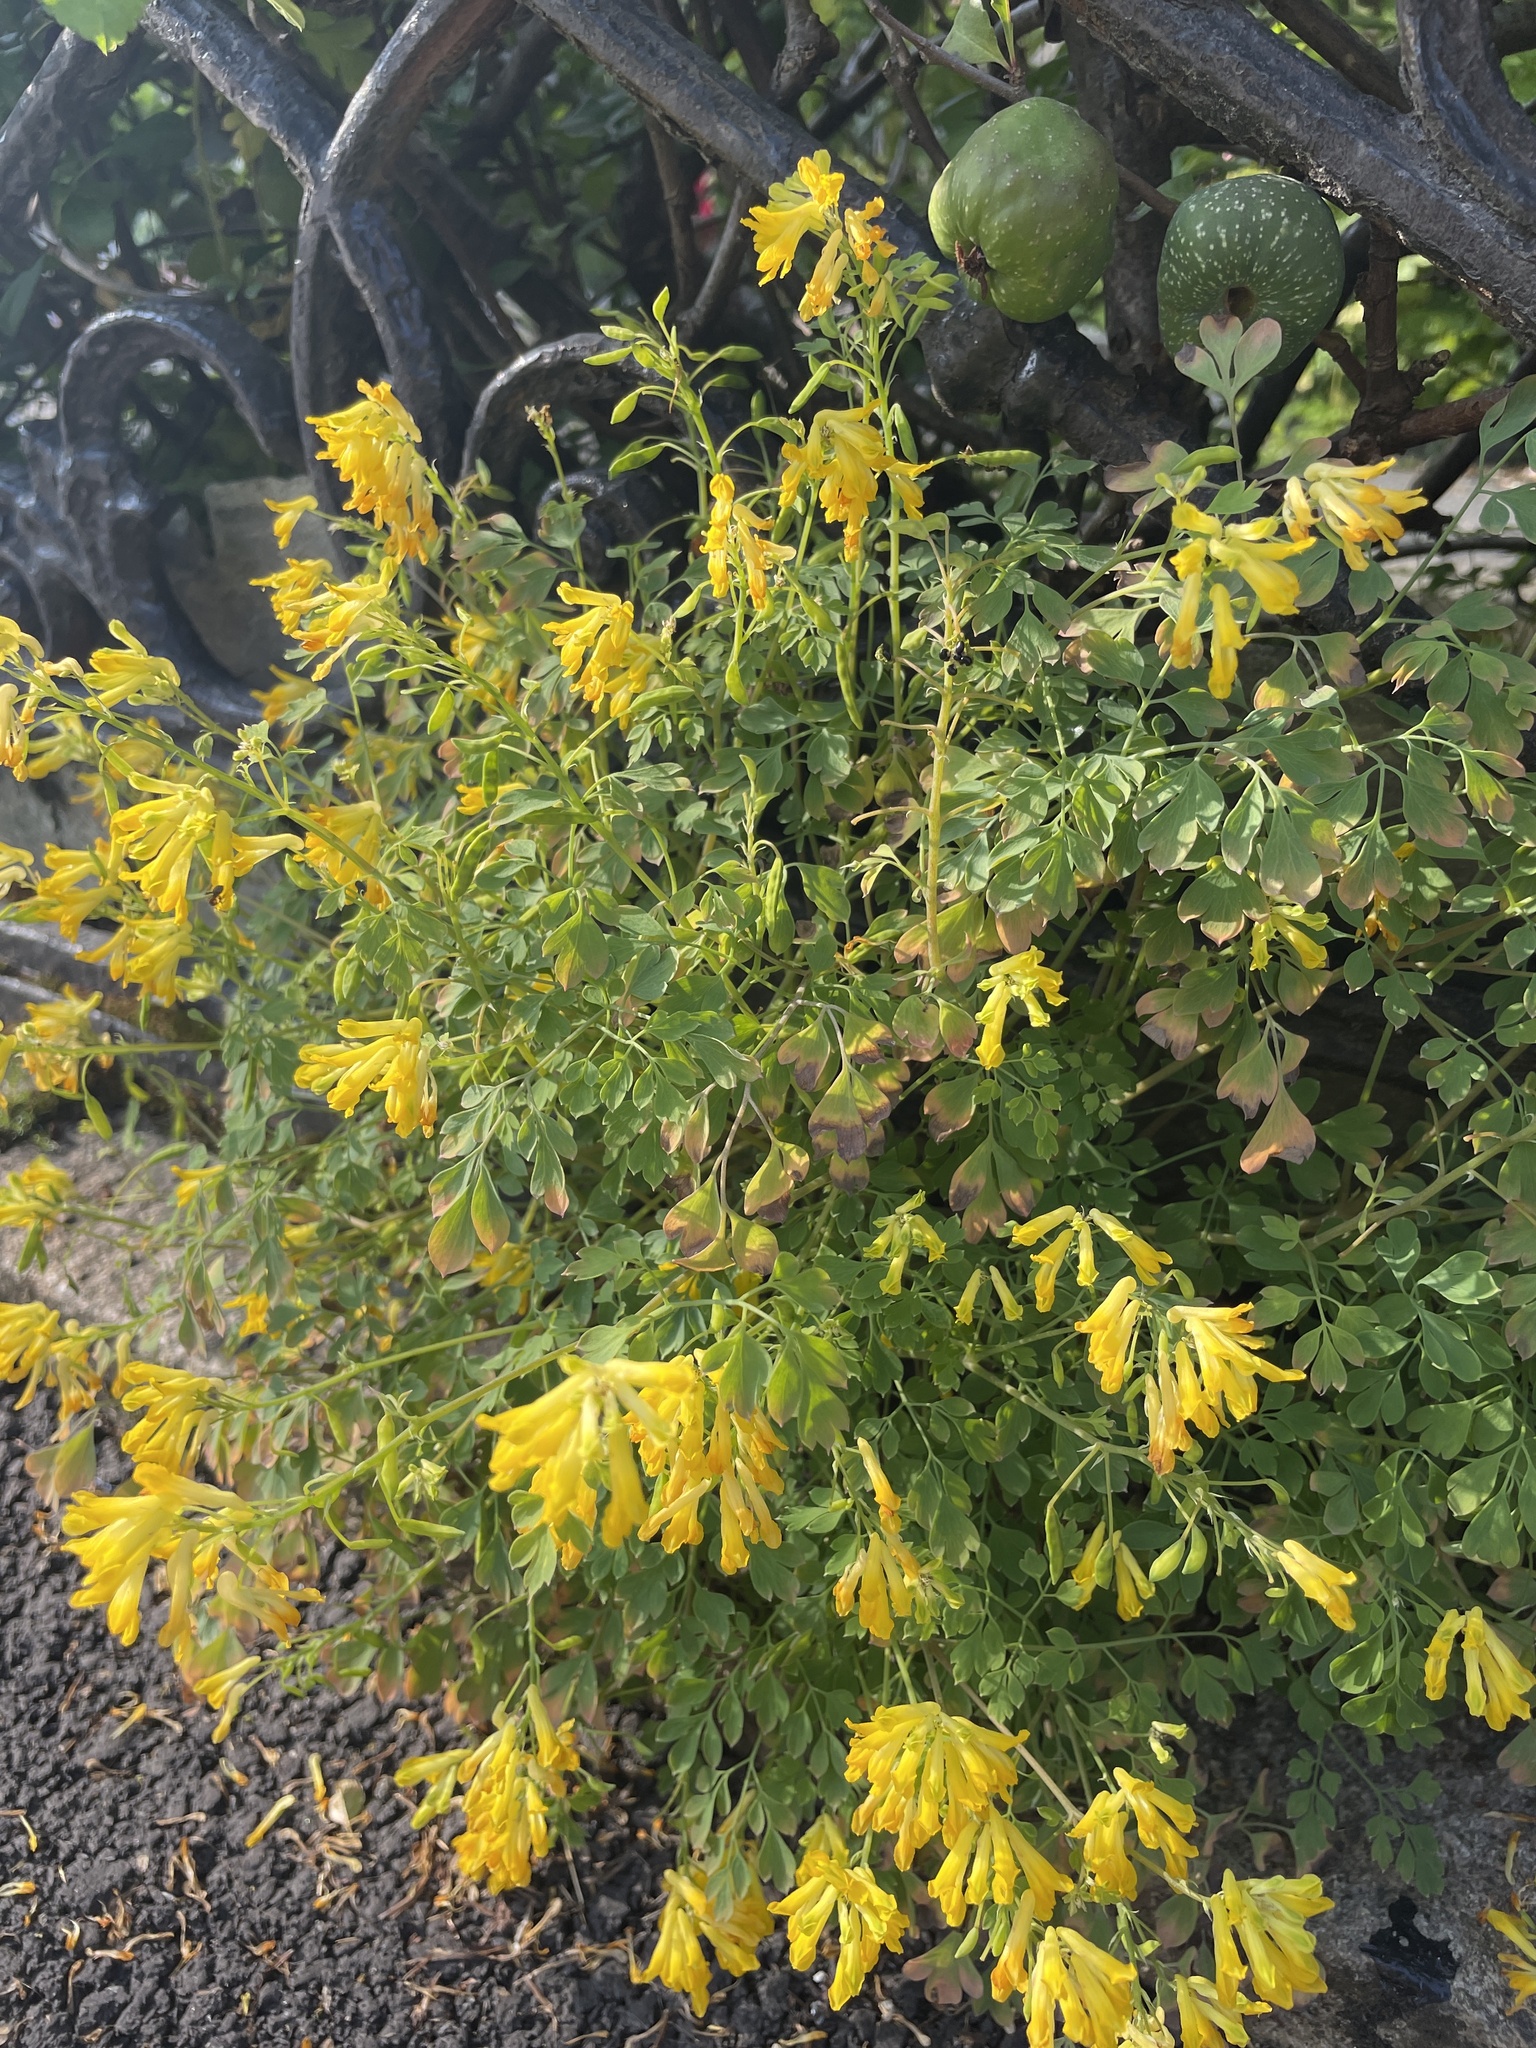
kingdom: Plantae
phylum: Tracheophyta
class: Magnoliopsida
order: Ranunculales
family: Papaveraceae
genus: Pseudofumaria
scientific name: Pseudofumaria lutea
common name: Yellow corydalis
